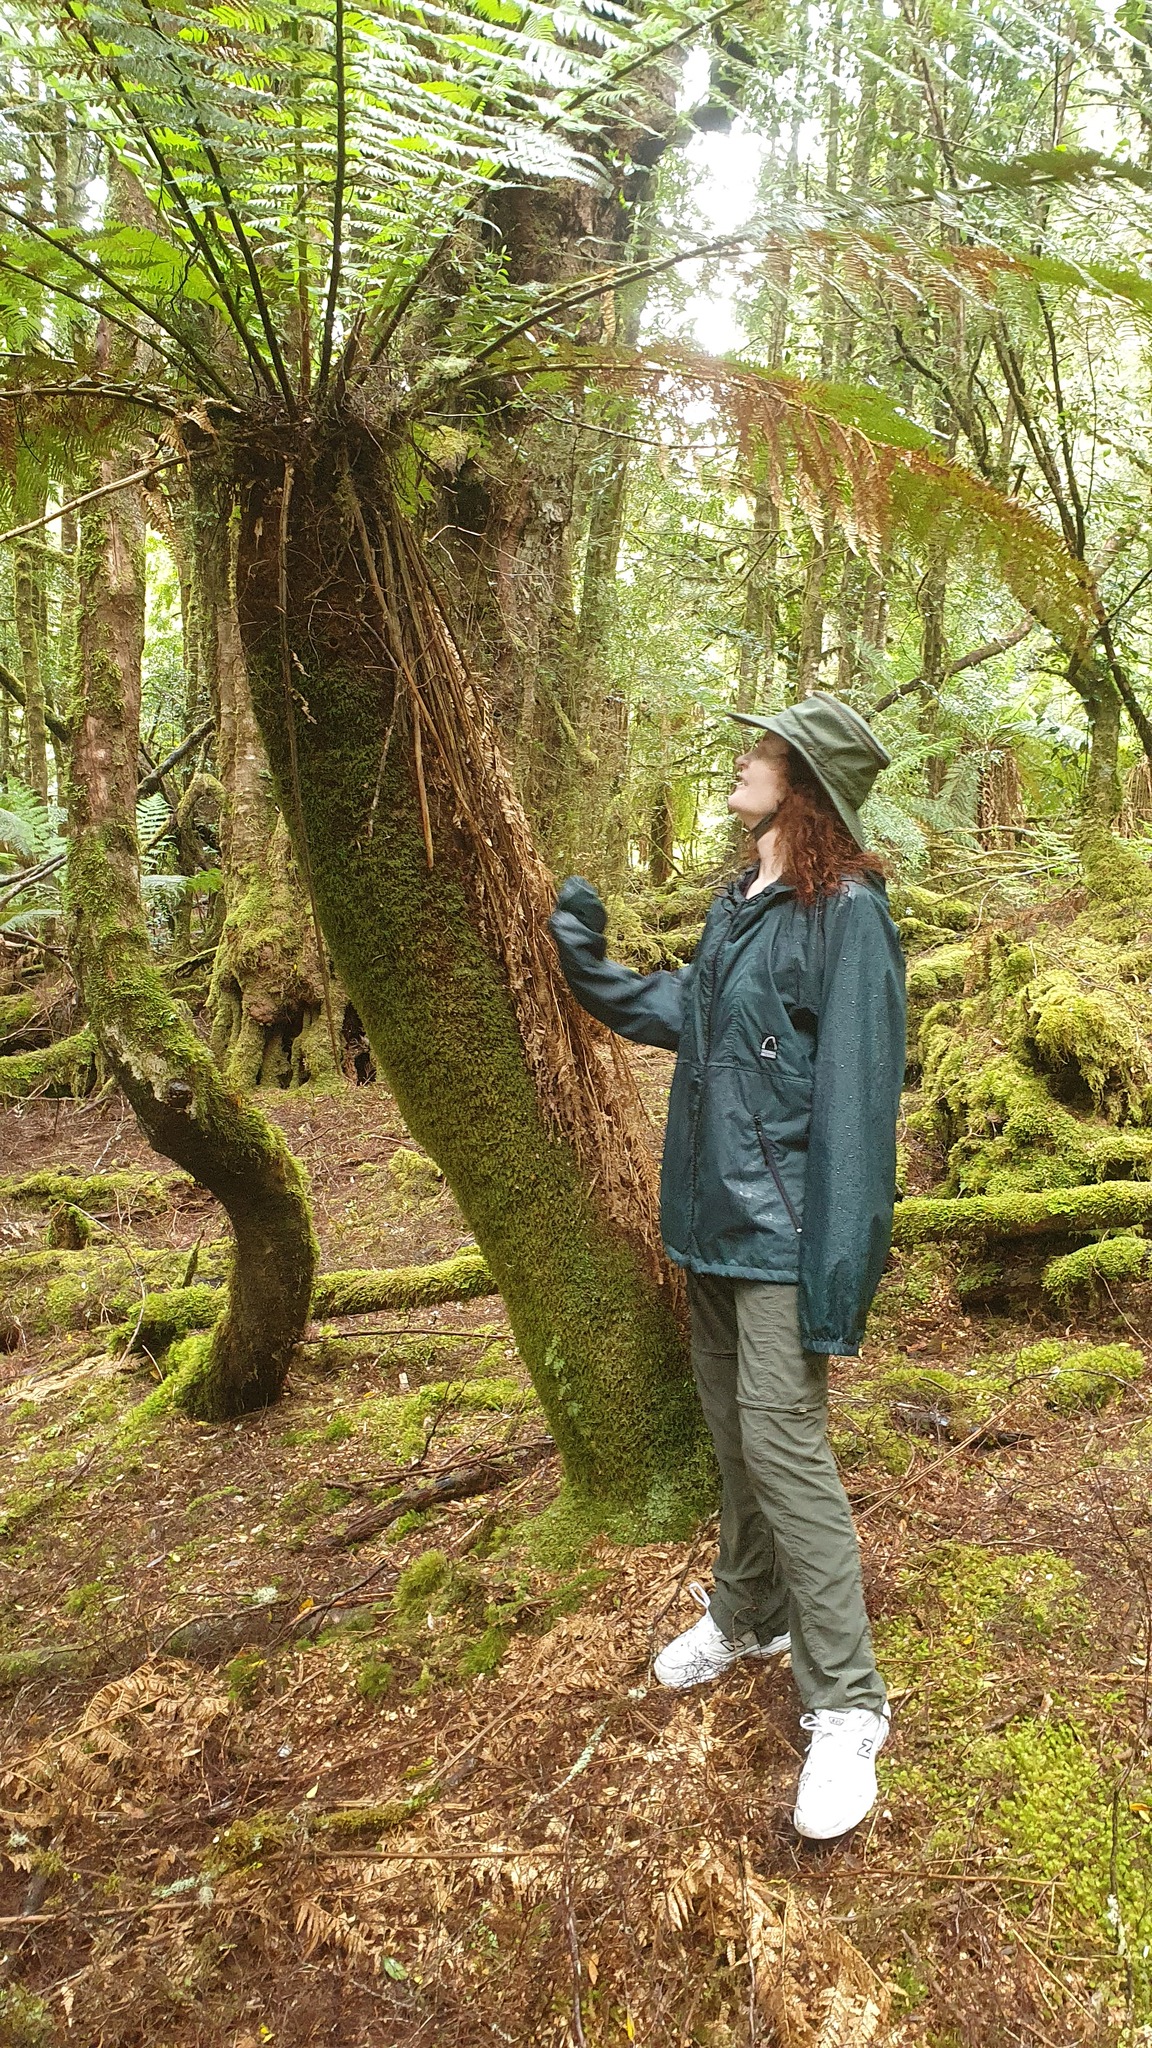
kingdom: Plantae
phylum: Tracheophyta
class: Polypodiopsida
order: Cyatheales
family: Dicksoniaceae
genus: Dicksonia
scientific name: Dicksonia antarctica
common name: Australian treefern
